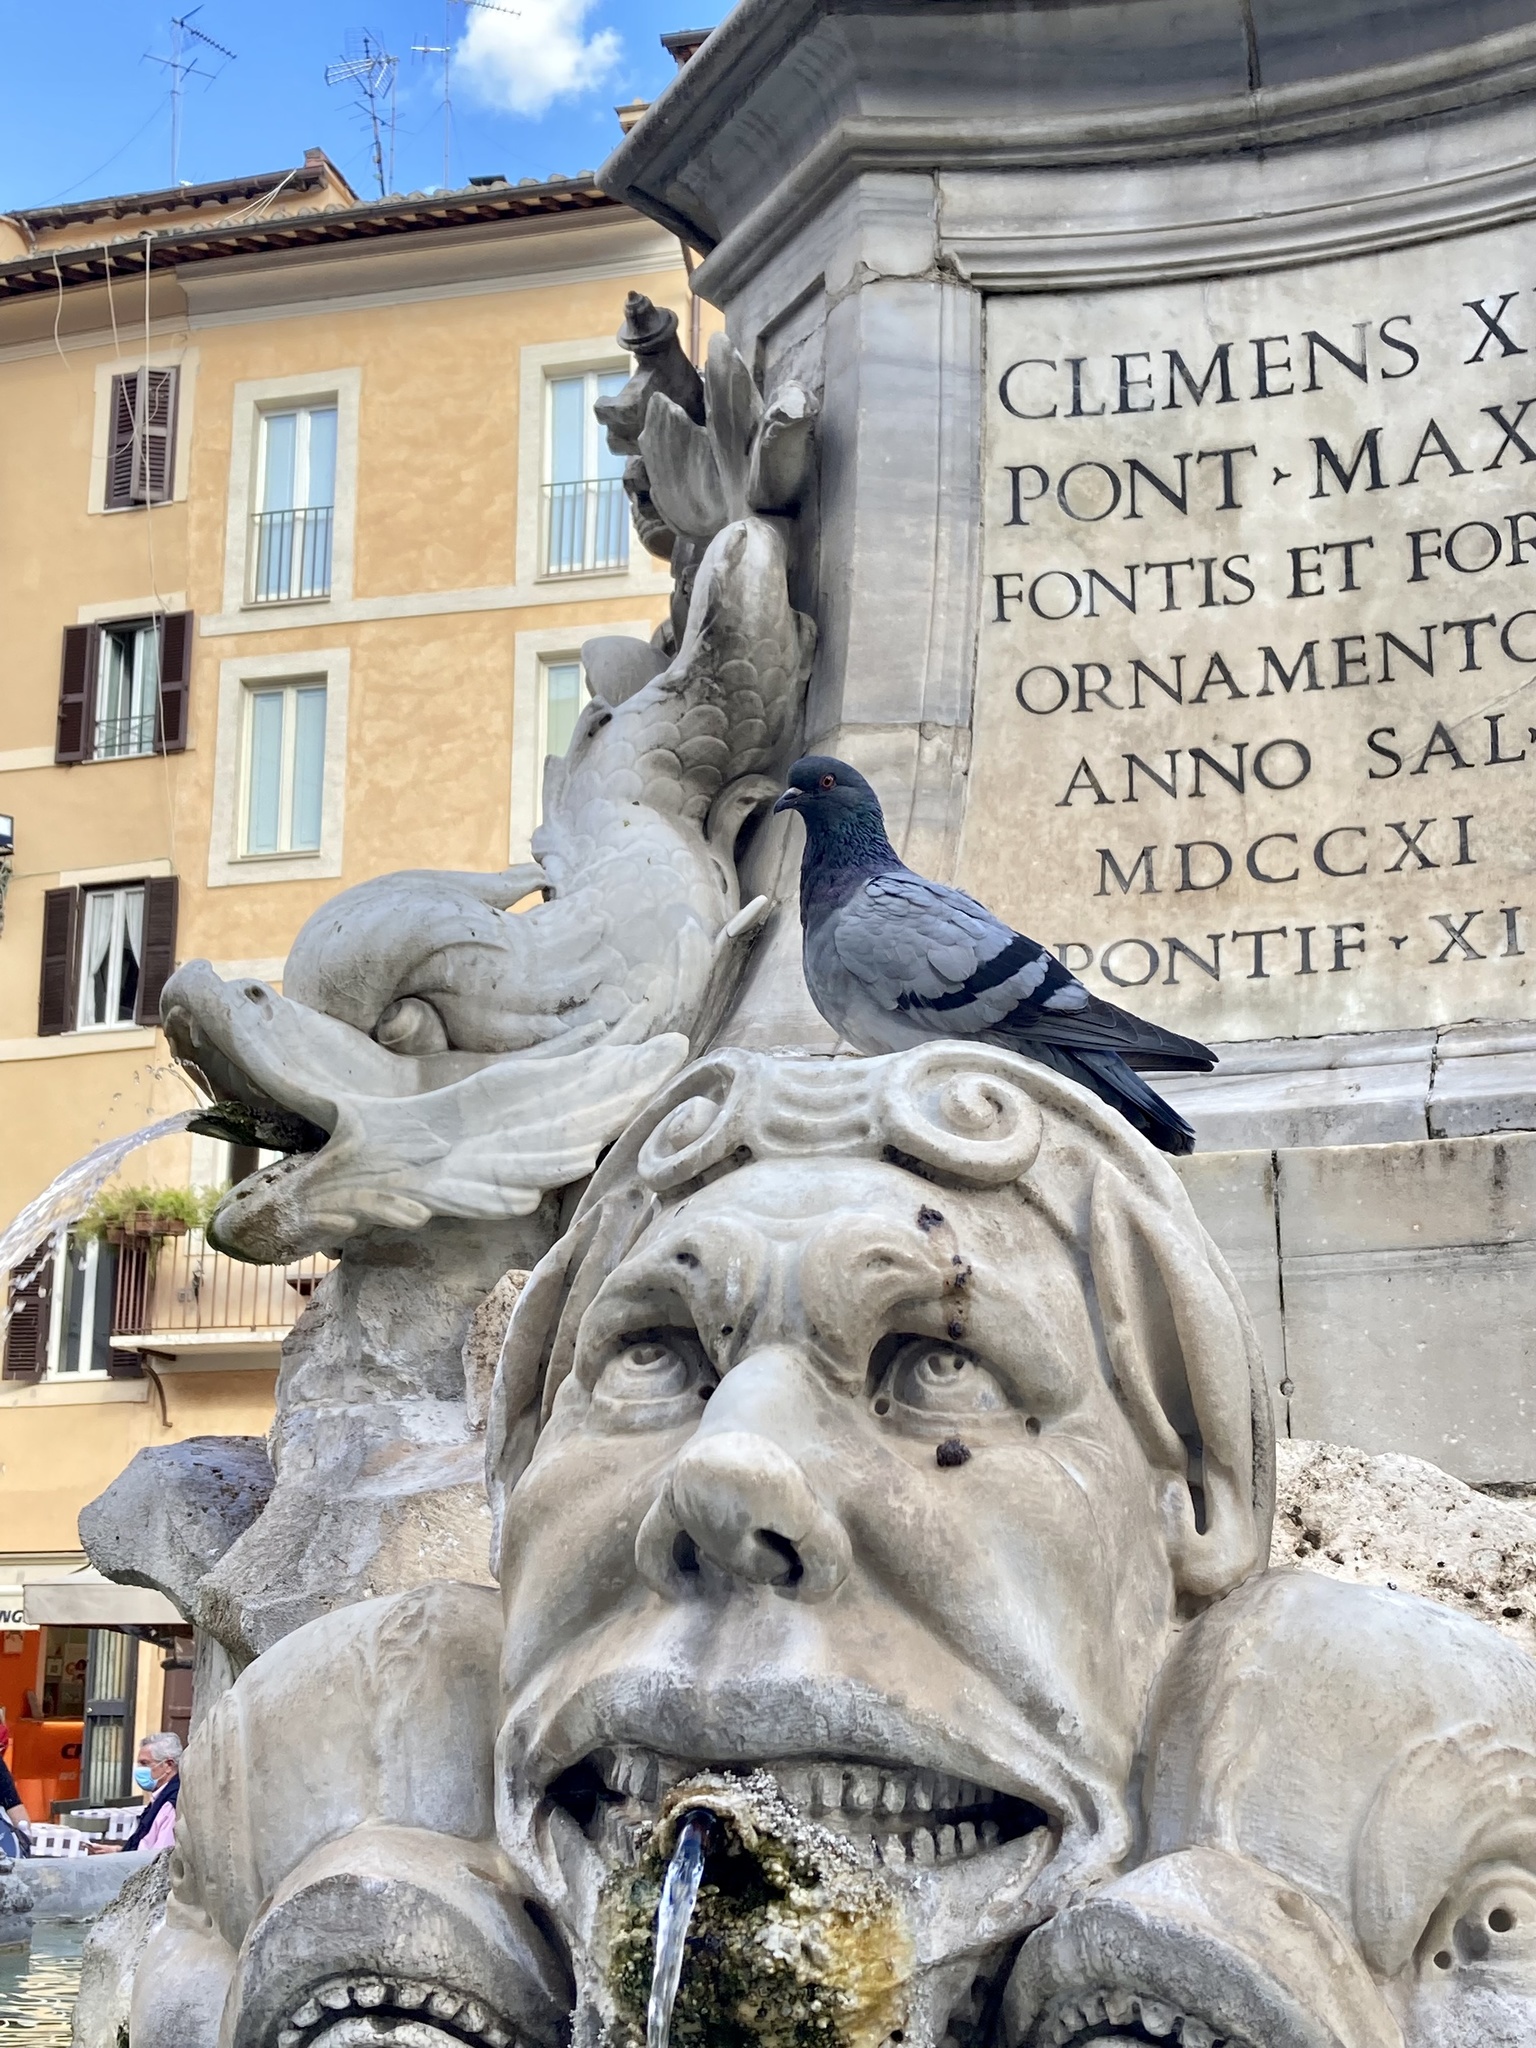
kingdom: Animalia
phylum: Chordata
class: Aves
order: Columbiformes
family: Columbidae
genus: Columba
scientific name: Columba livia
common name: Rock pigeon
